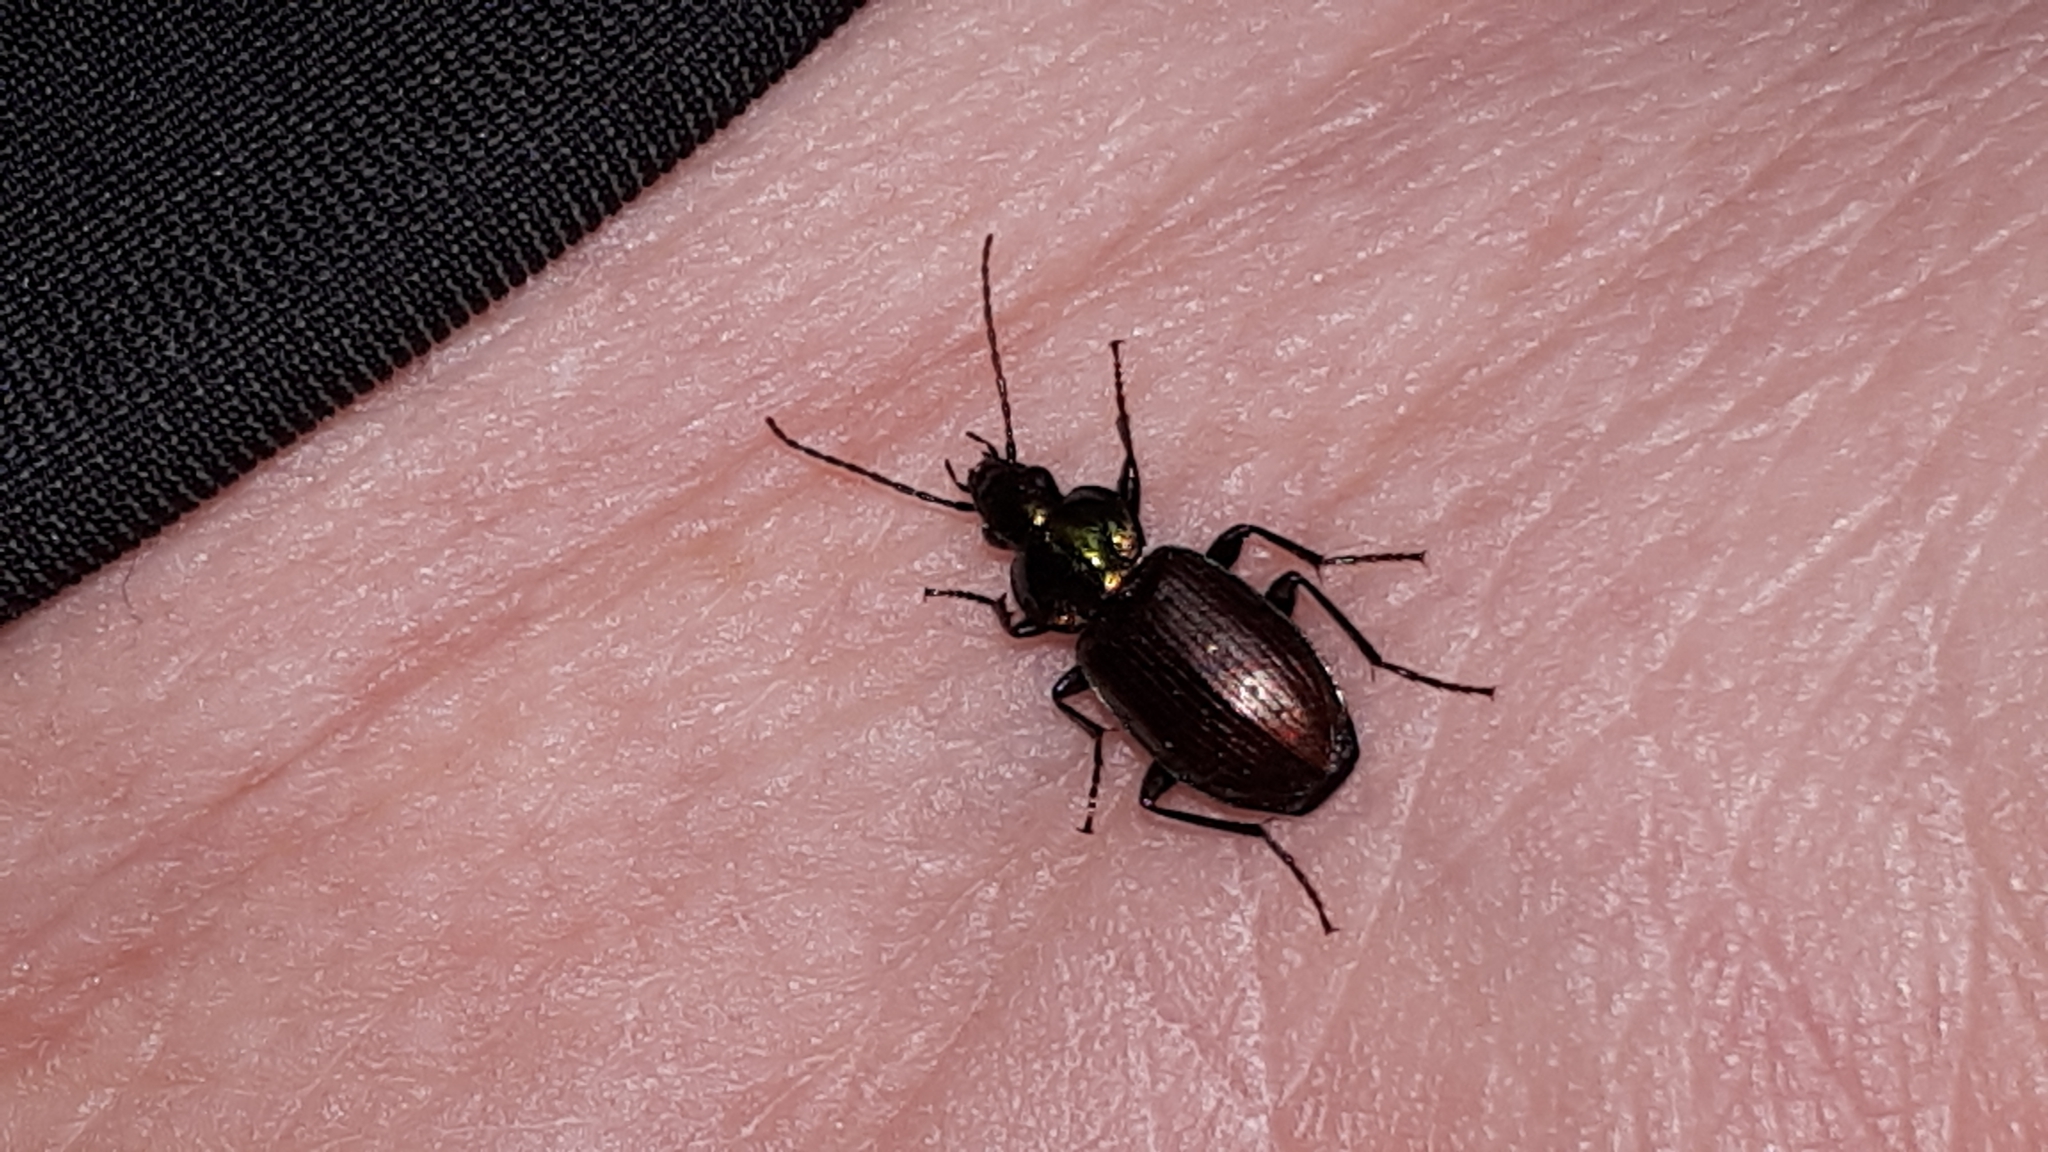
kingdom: Animalia
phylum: Arthropoda
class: Insecta
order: Coleoptera
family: Carabidae
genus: Agonum
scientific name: Agonum sexpunctatum
